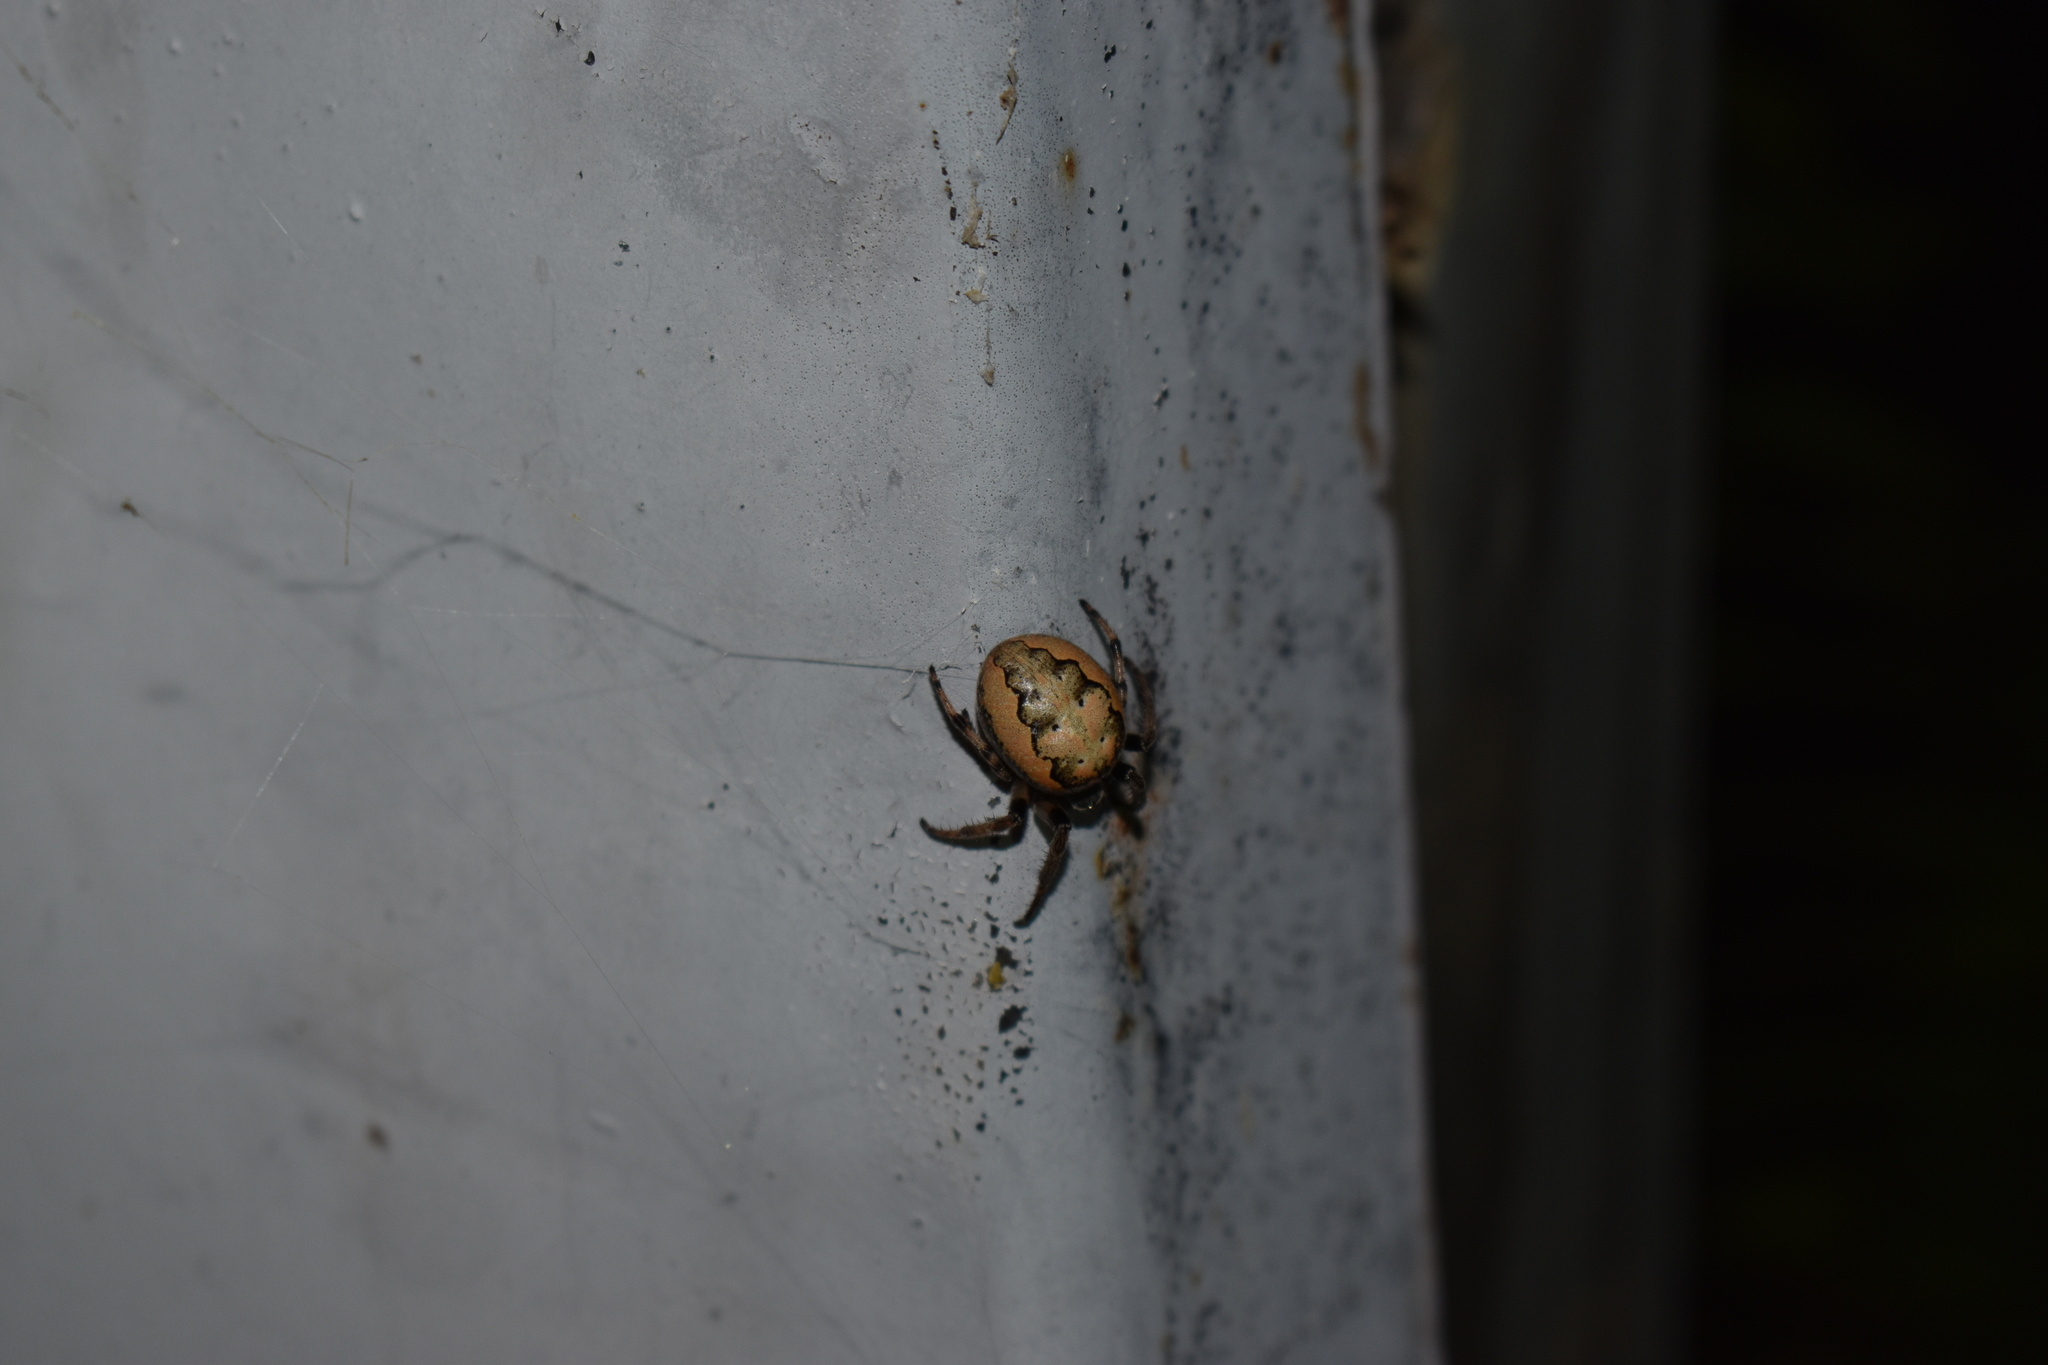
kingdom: Animalia
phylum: Arthropoda
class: Arachnida
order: Araneae
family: Araneidae
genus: Araneus
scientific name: Araneus marmoreus
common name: Marbled orbweaver
